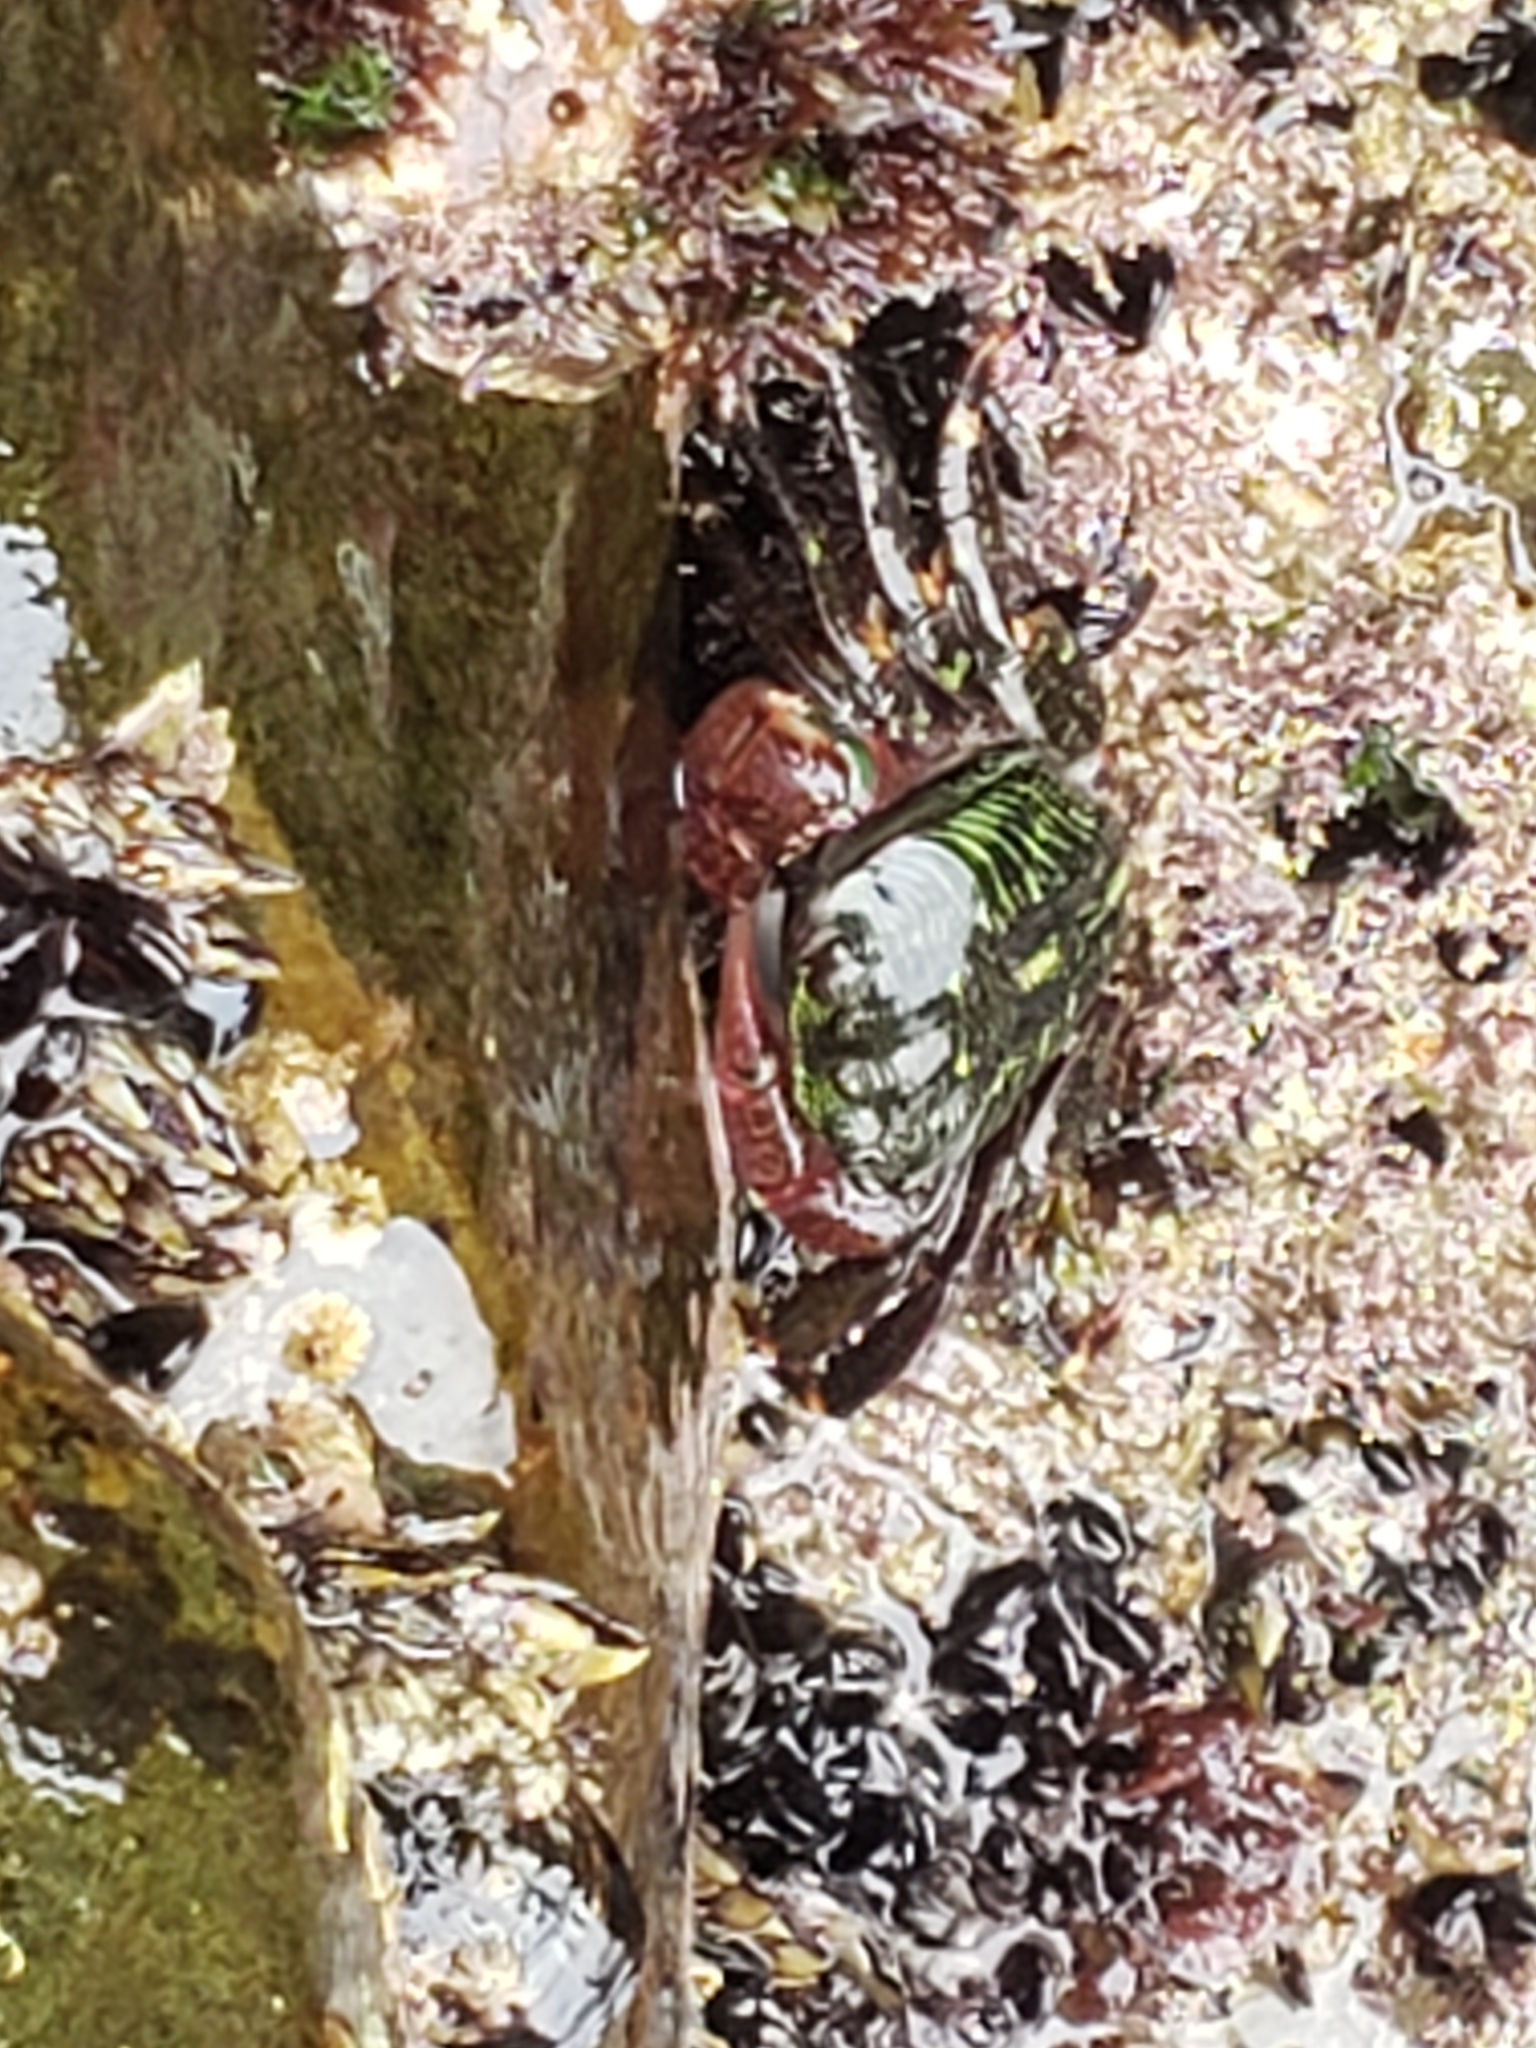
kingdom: Animalia
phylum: Arthropoda
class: Malacostraca
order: Decapoda
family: Grapsidae
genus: Pachygrapsus
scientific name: Pachygrapsus crassipes
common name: Striped shore crab
